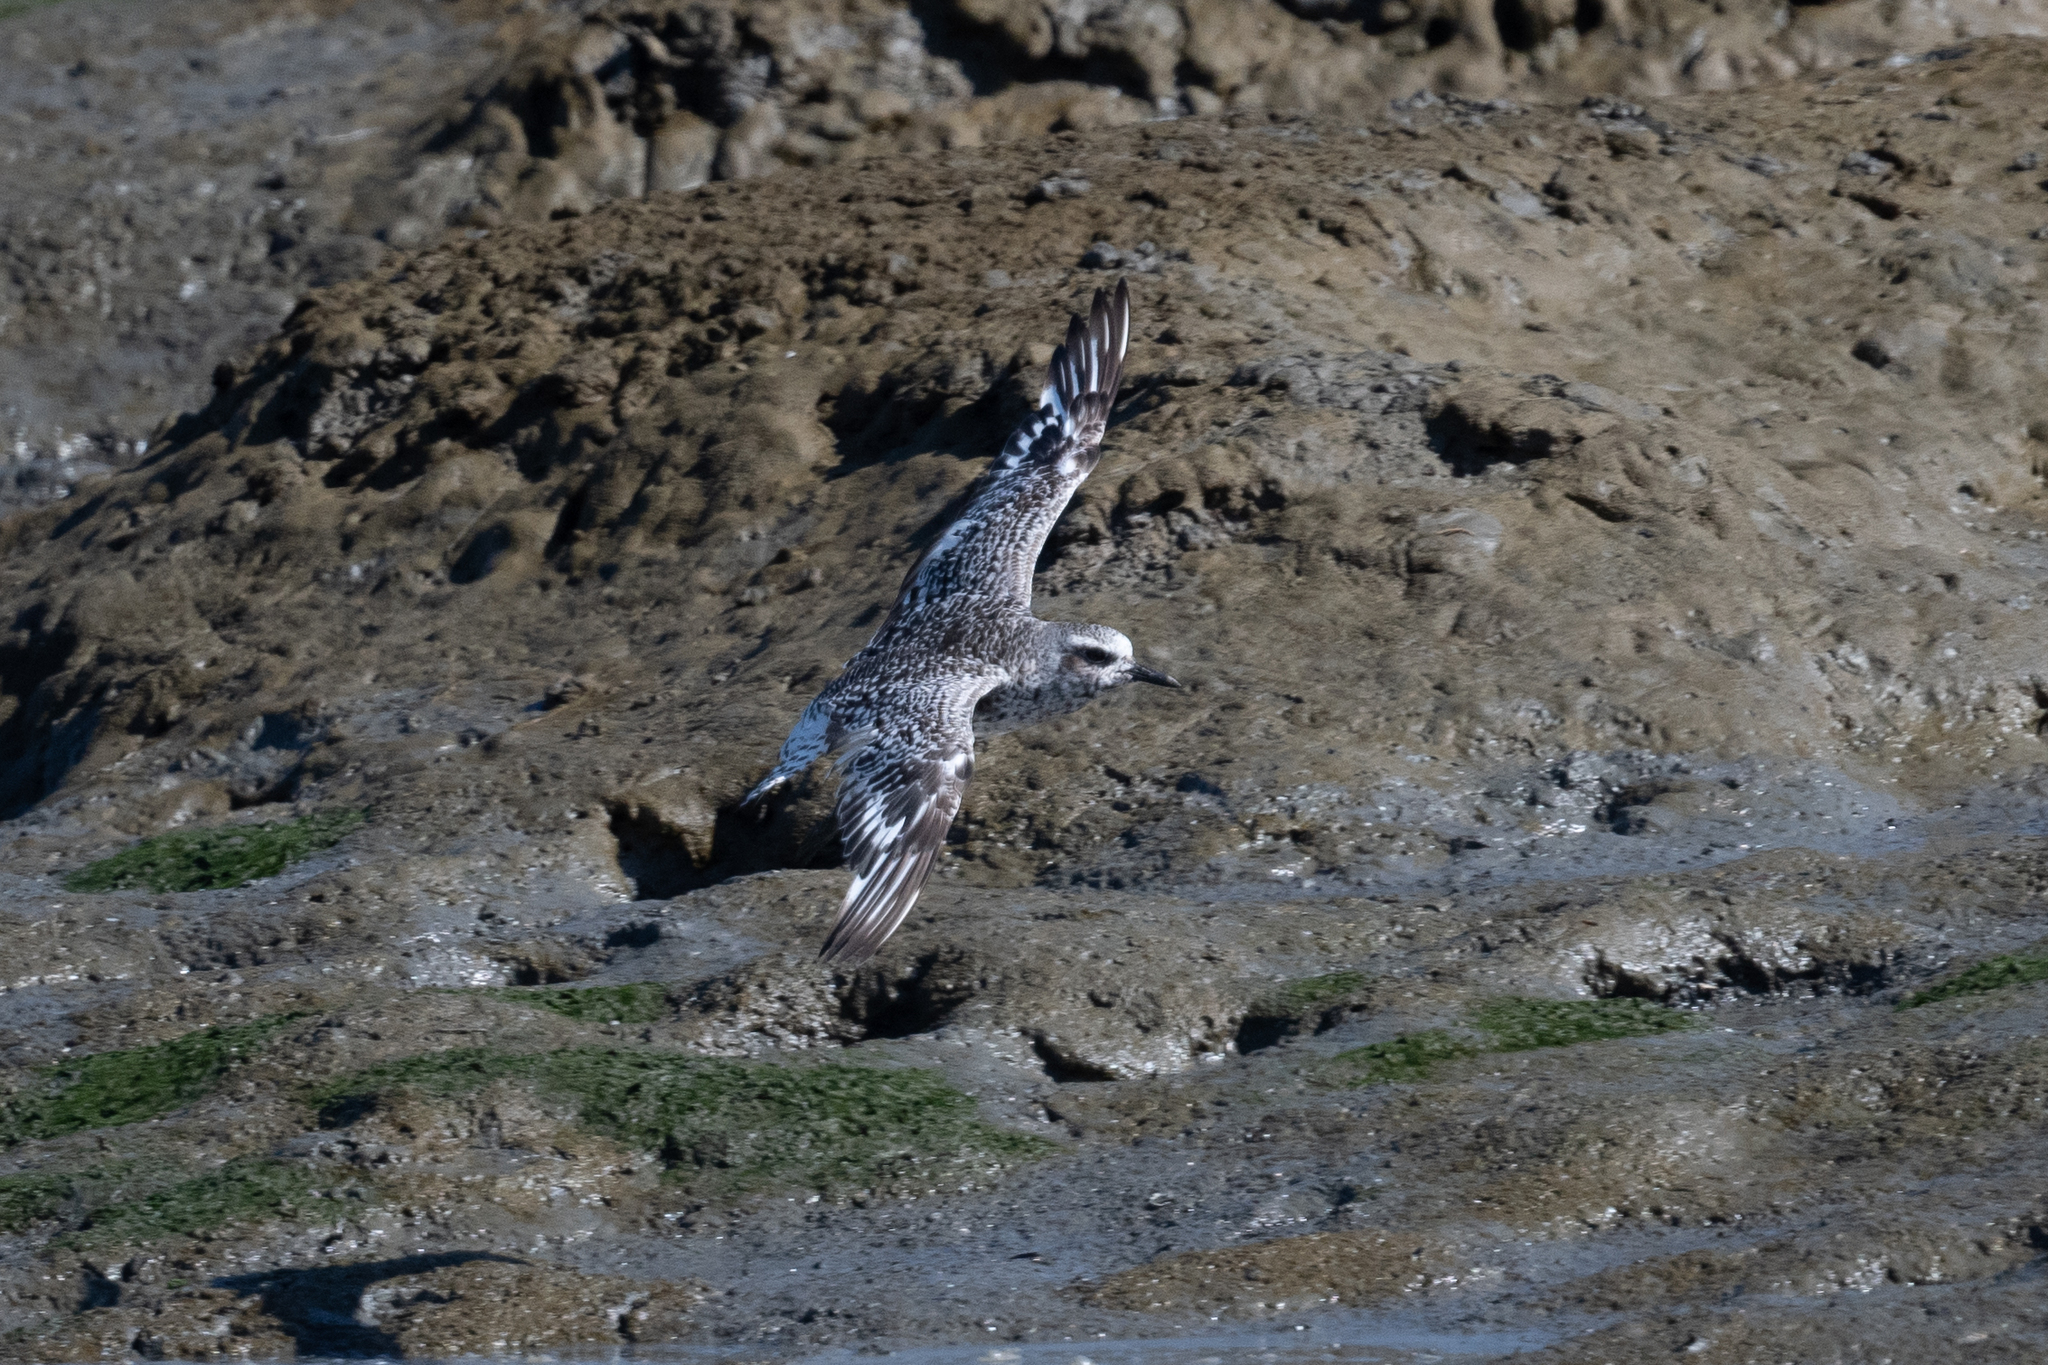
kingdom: Animalia
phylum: Chordata
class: Aves
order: Charadriiformes
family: Charadriidae
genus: Pluvialis
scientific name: Pluvialis squatarola
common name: Grey plover
